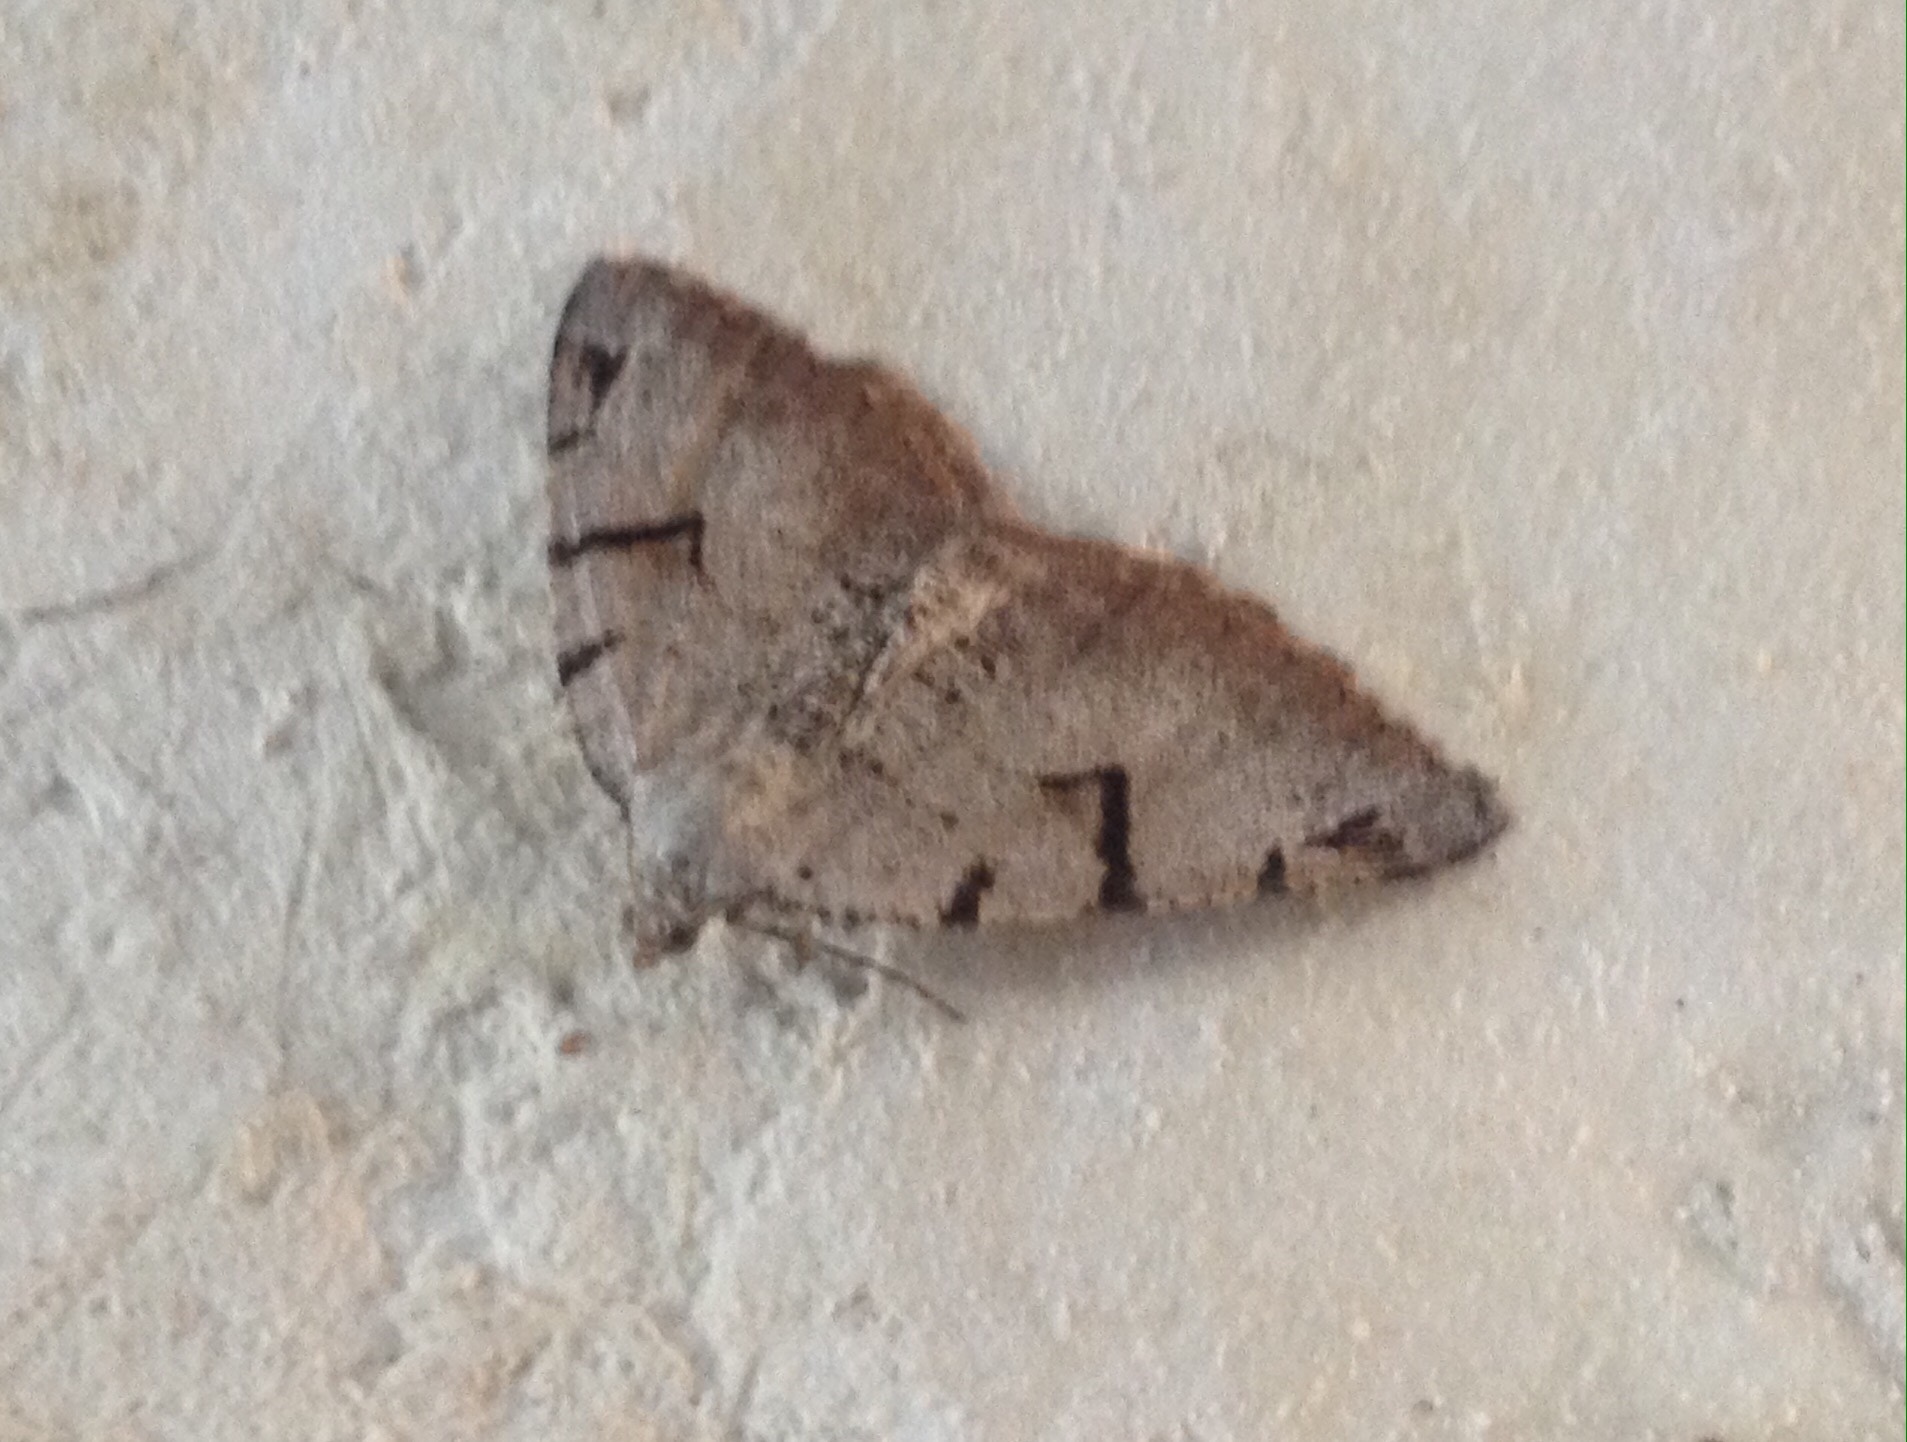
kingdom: Animalia
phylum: Arthropoda
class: Insecta
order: Lepidoptera
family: Geometridae
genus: Macaria
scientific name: Macaria wauaria
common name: V-moth
